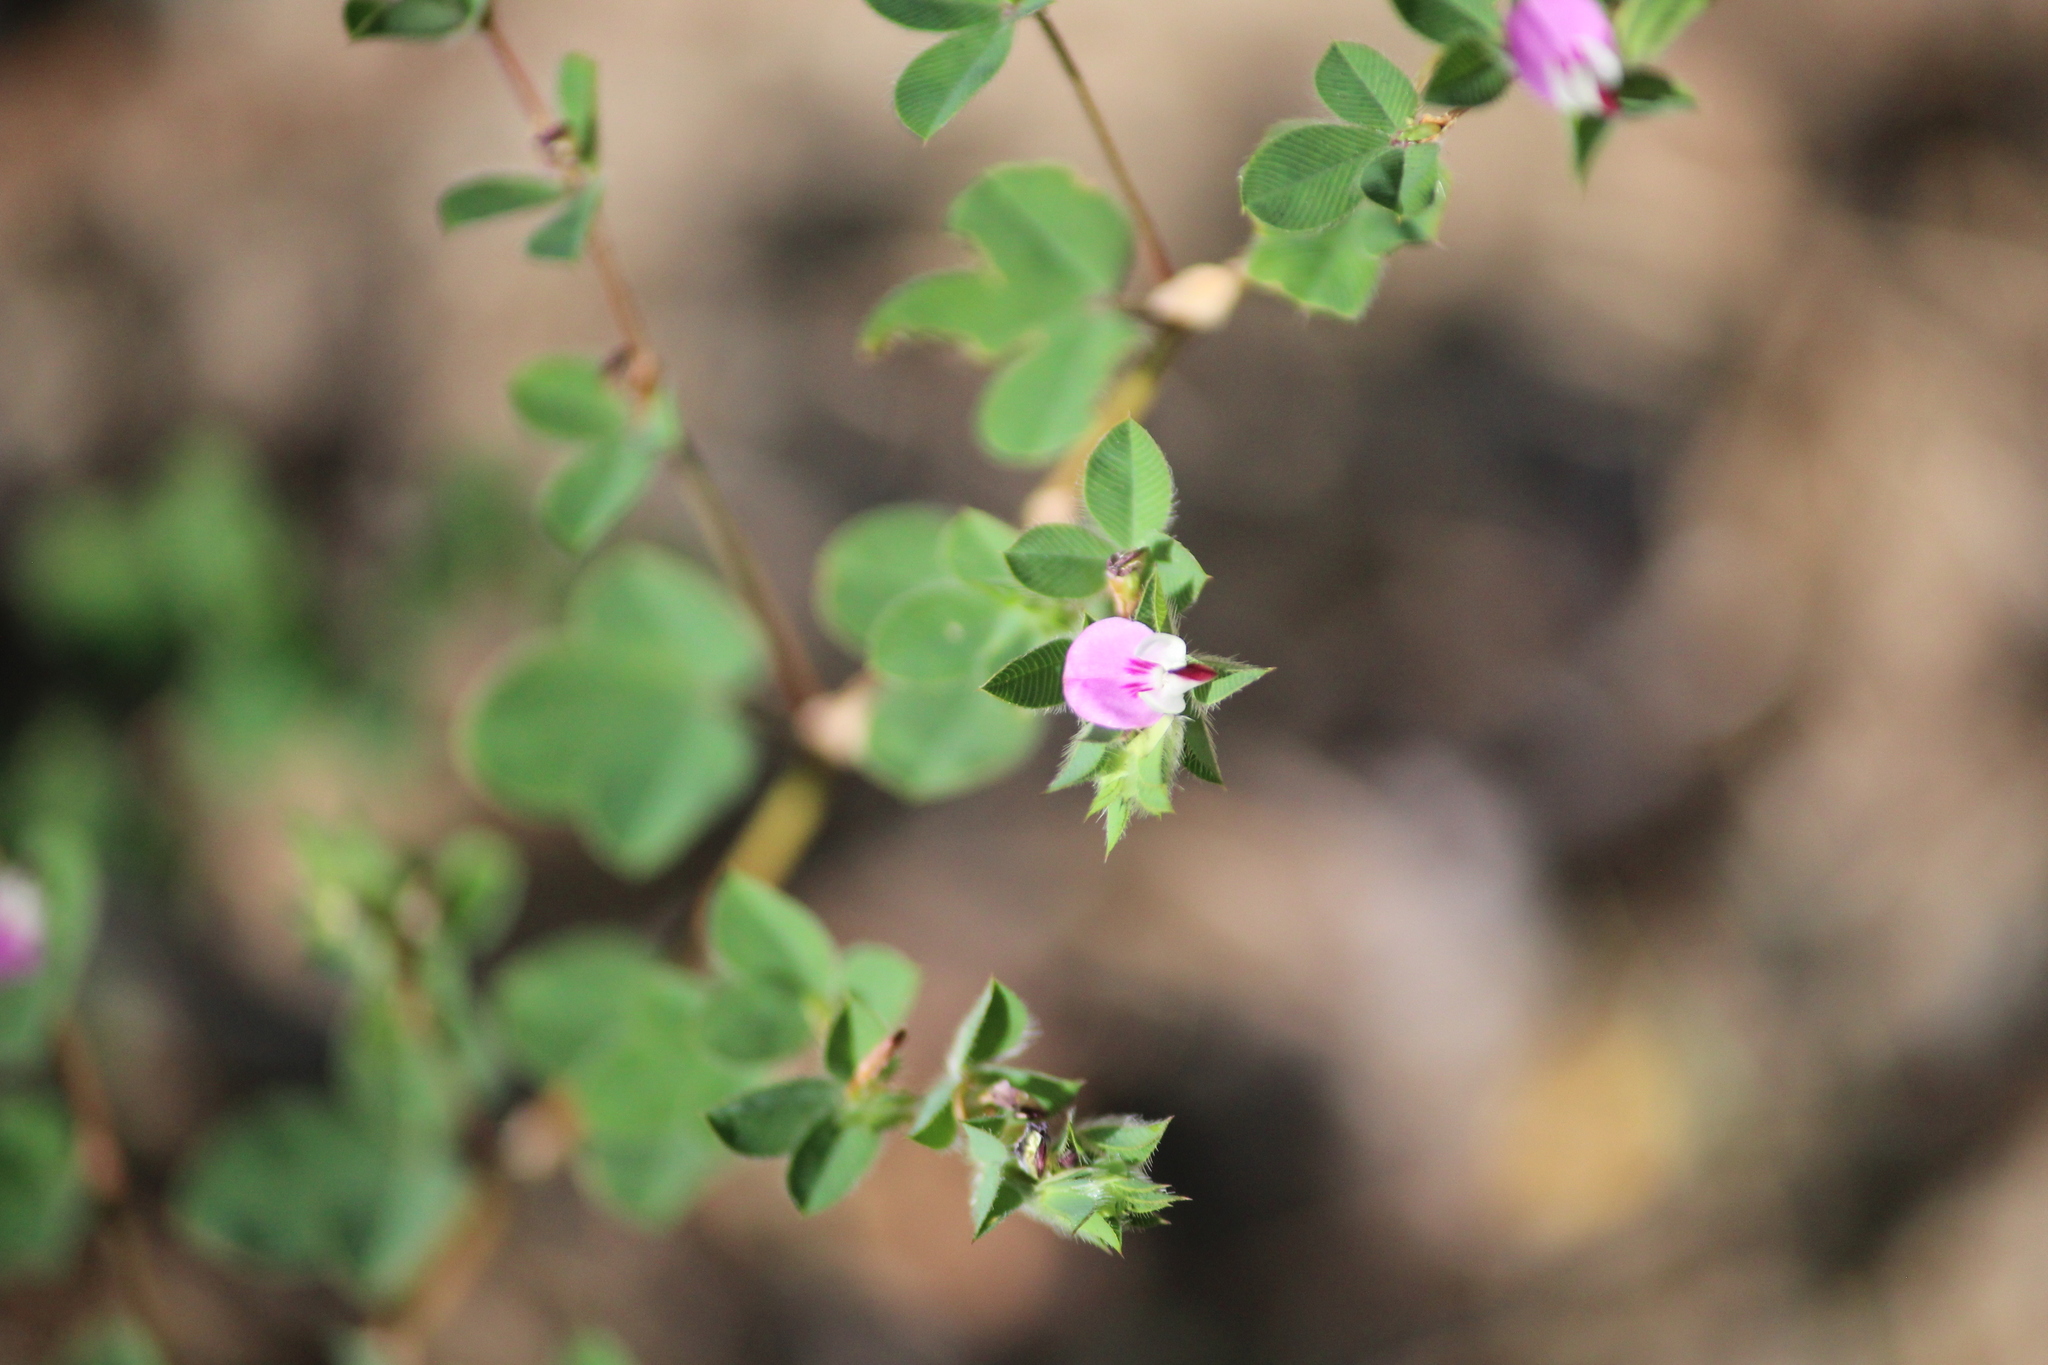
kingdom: Plantae
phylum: Tracheophyta
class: Magnoliopsida
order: Fabales
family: Fabaceae
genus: Kummerowia
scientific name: Kummerowia stipulacea
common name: Korean clover
